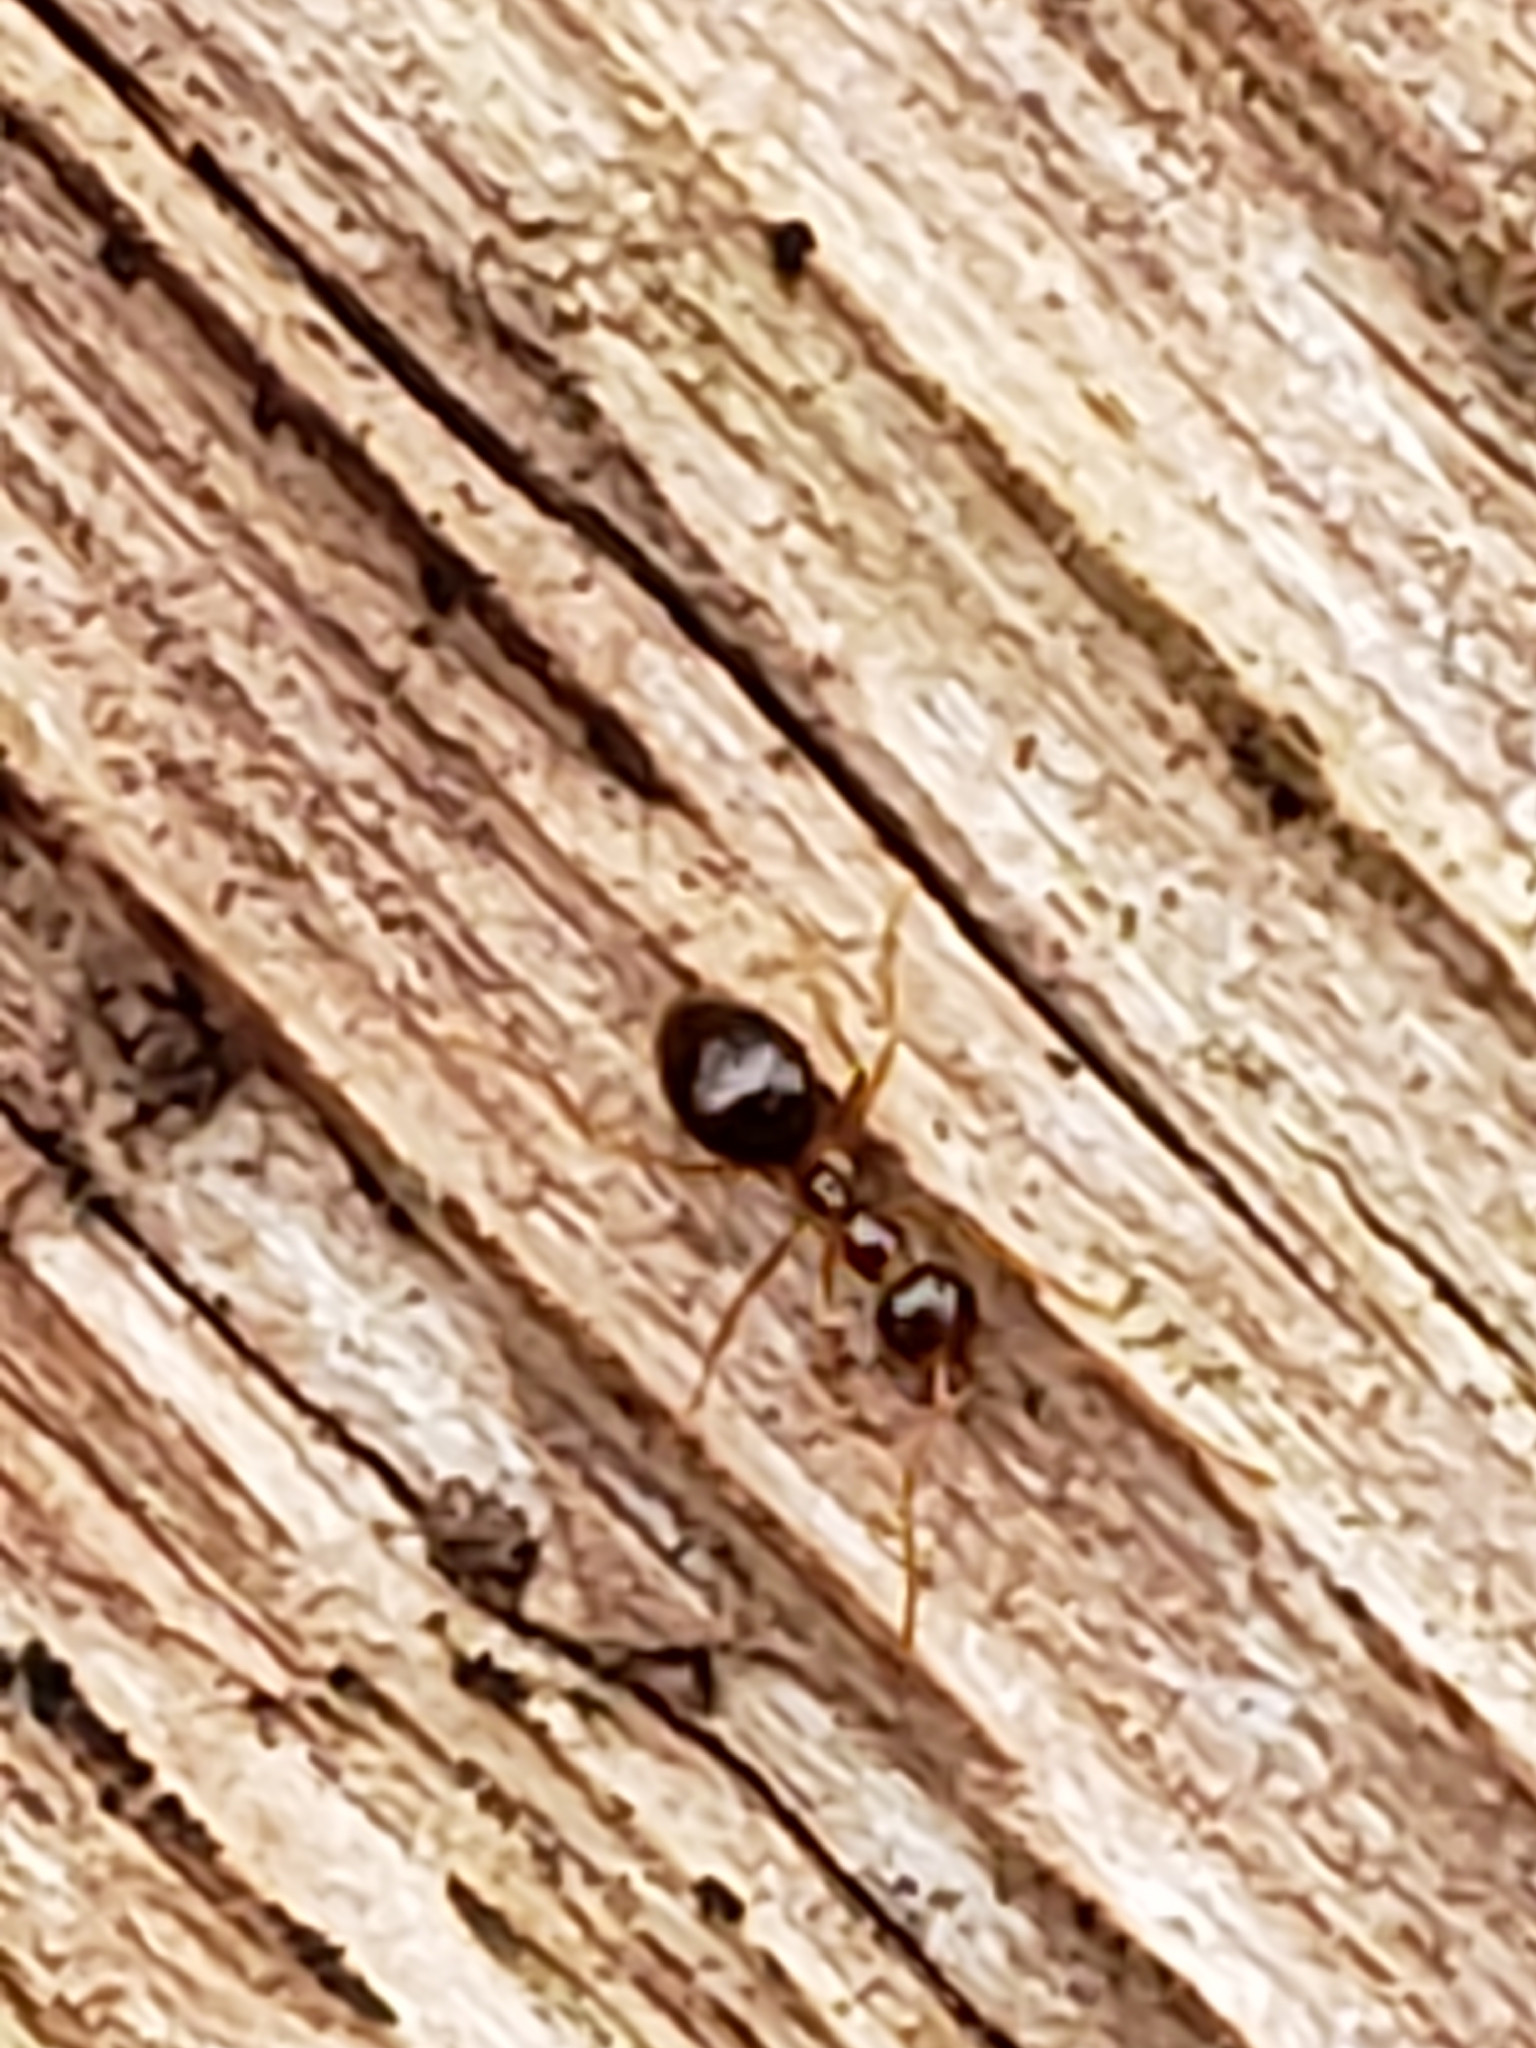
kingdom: Animalia
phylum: Arthropoda
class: Insecta
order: Hymenoptera
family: Formicidae
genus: Prenolepis
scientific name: Prenolepis imparis
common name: Small honey ant
